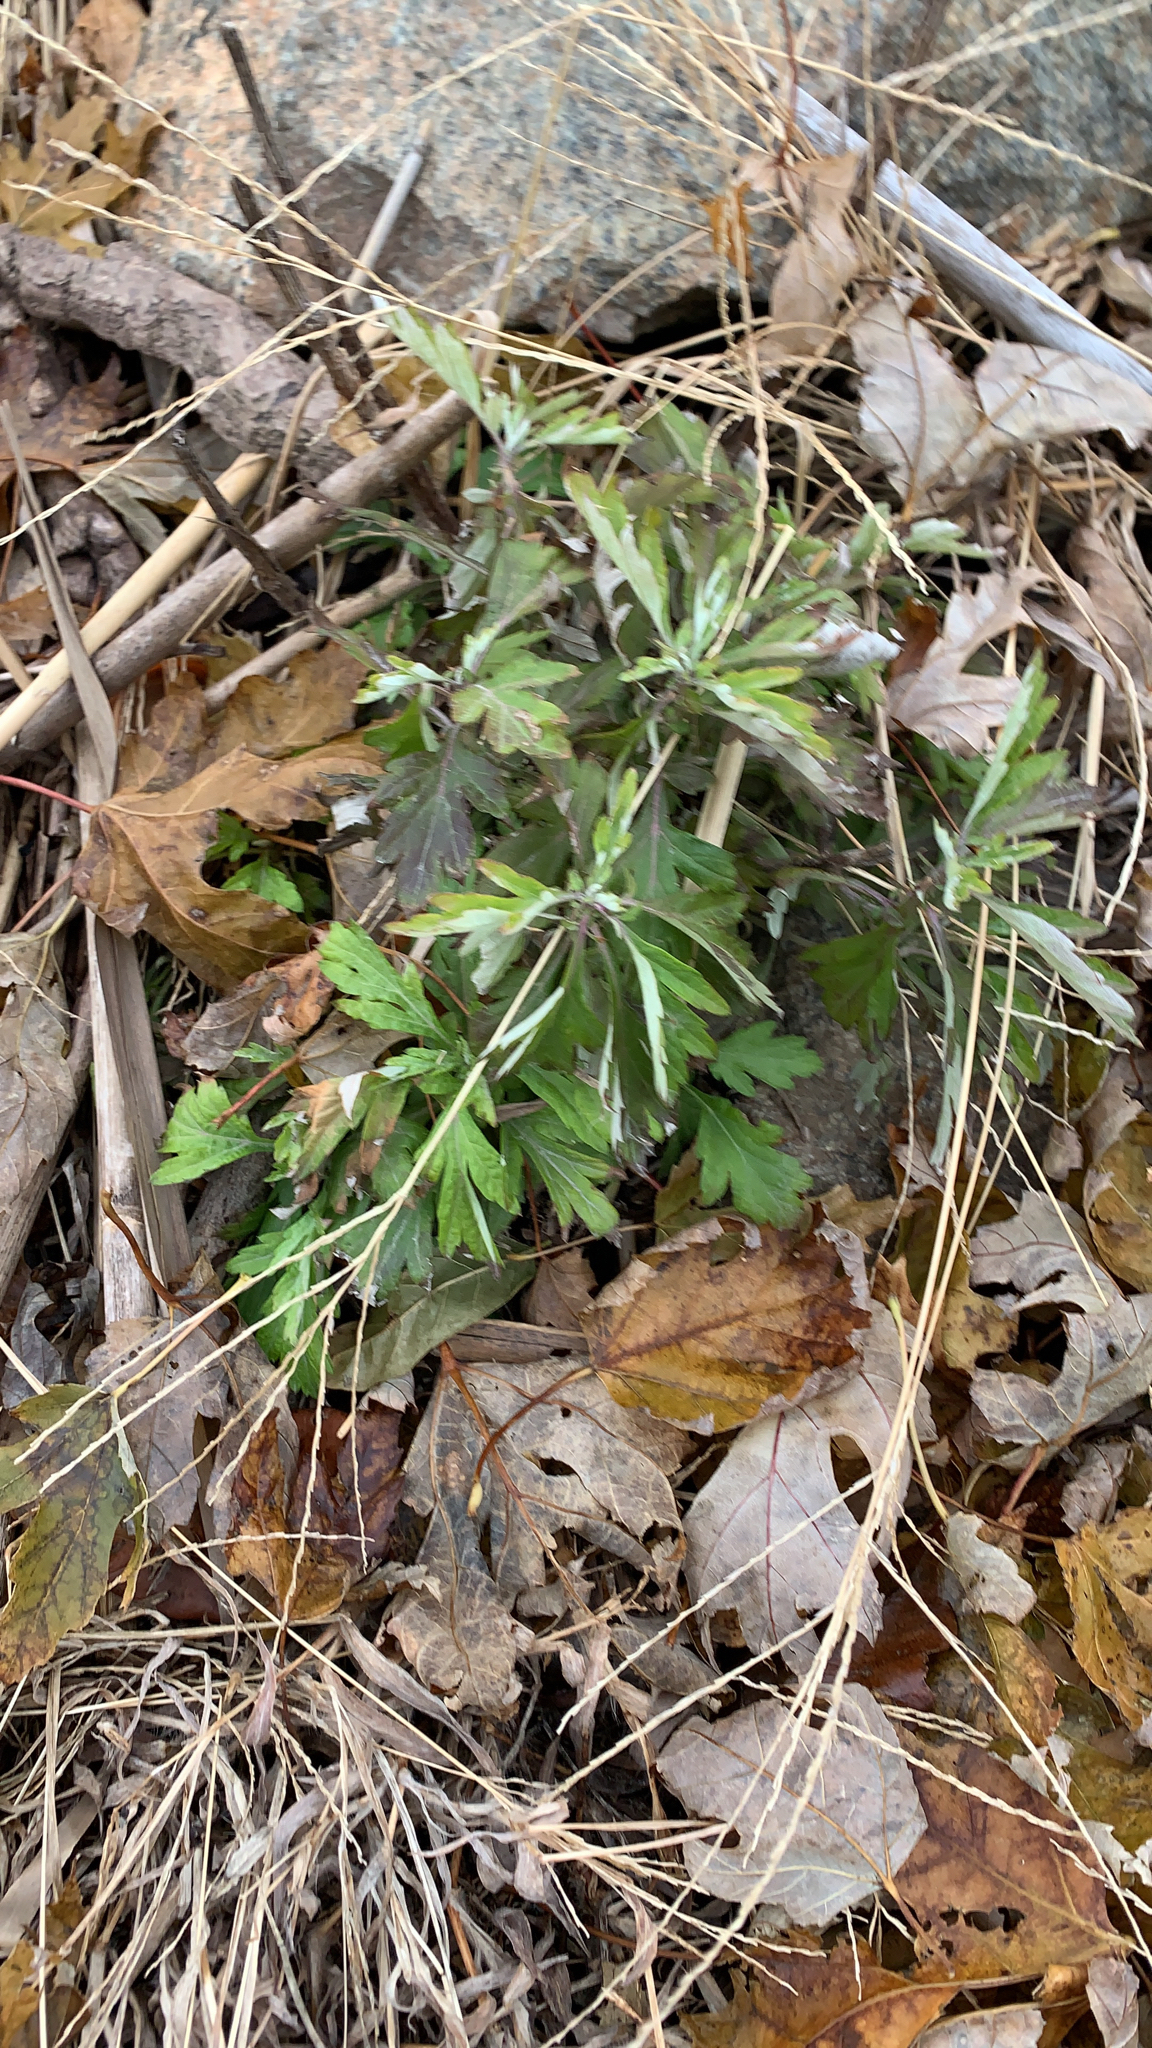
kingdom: Plantae
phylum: Tracheophyta
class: Magnoliopsida
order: Asterales
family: Asteraceae
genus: Artemisia
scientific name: Artemisia vulgaris
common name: Mugwort
